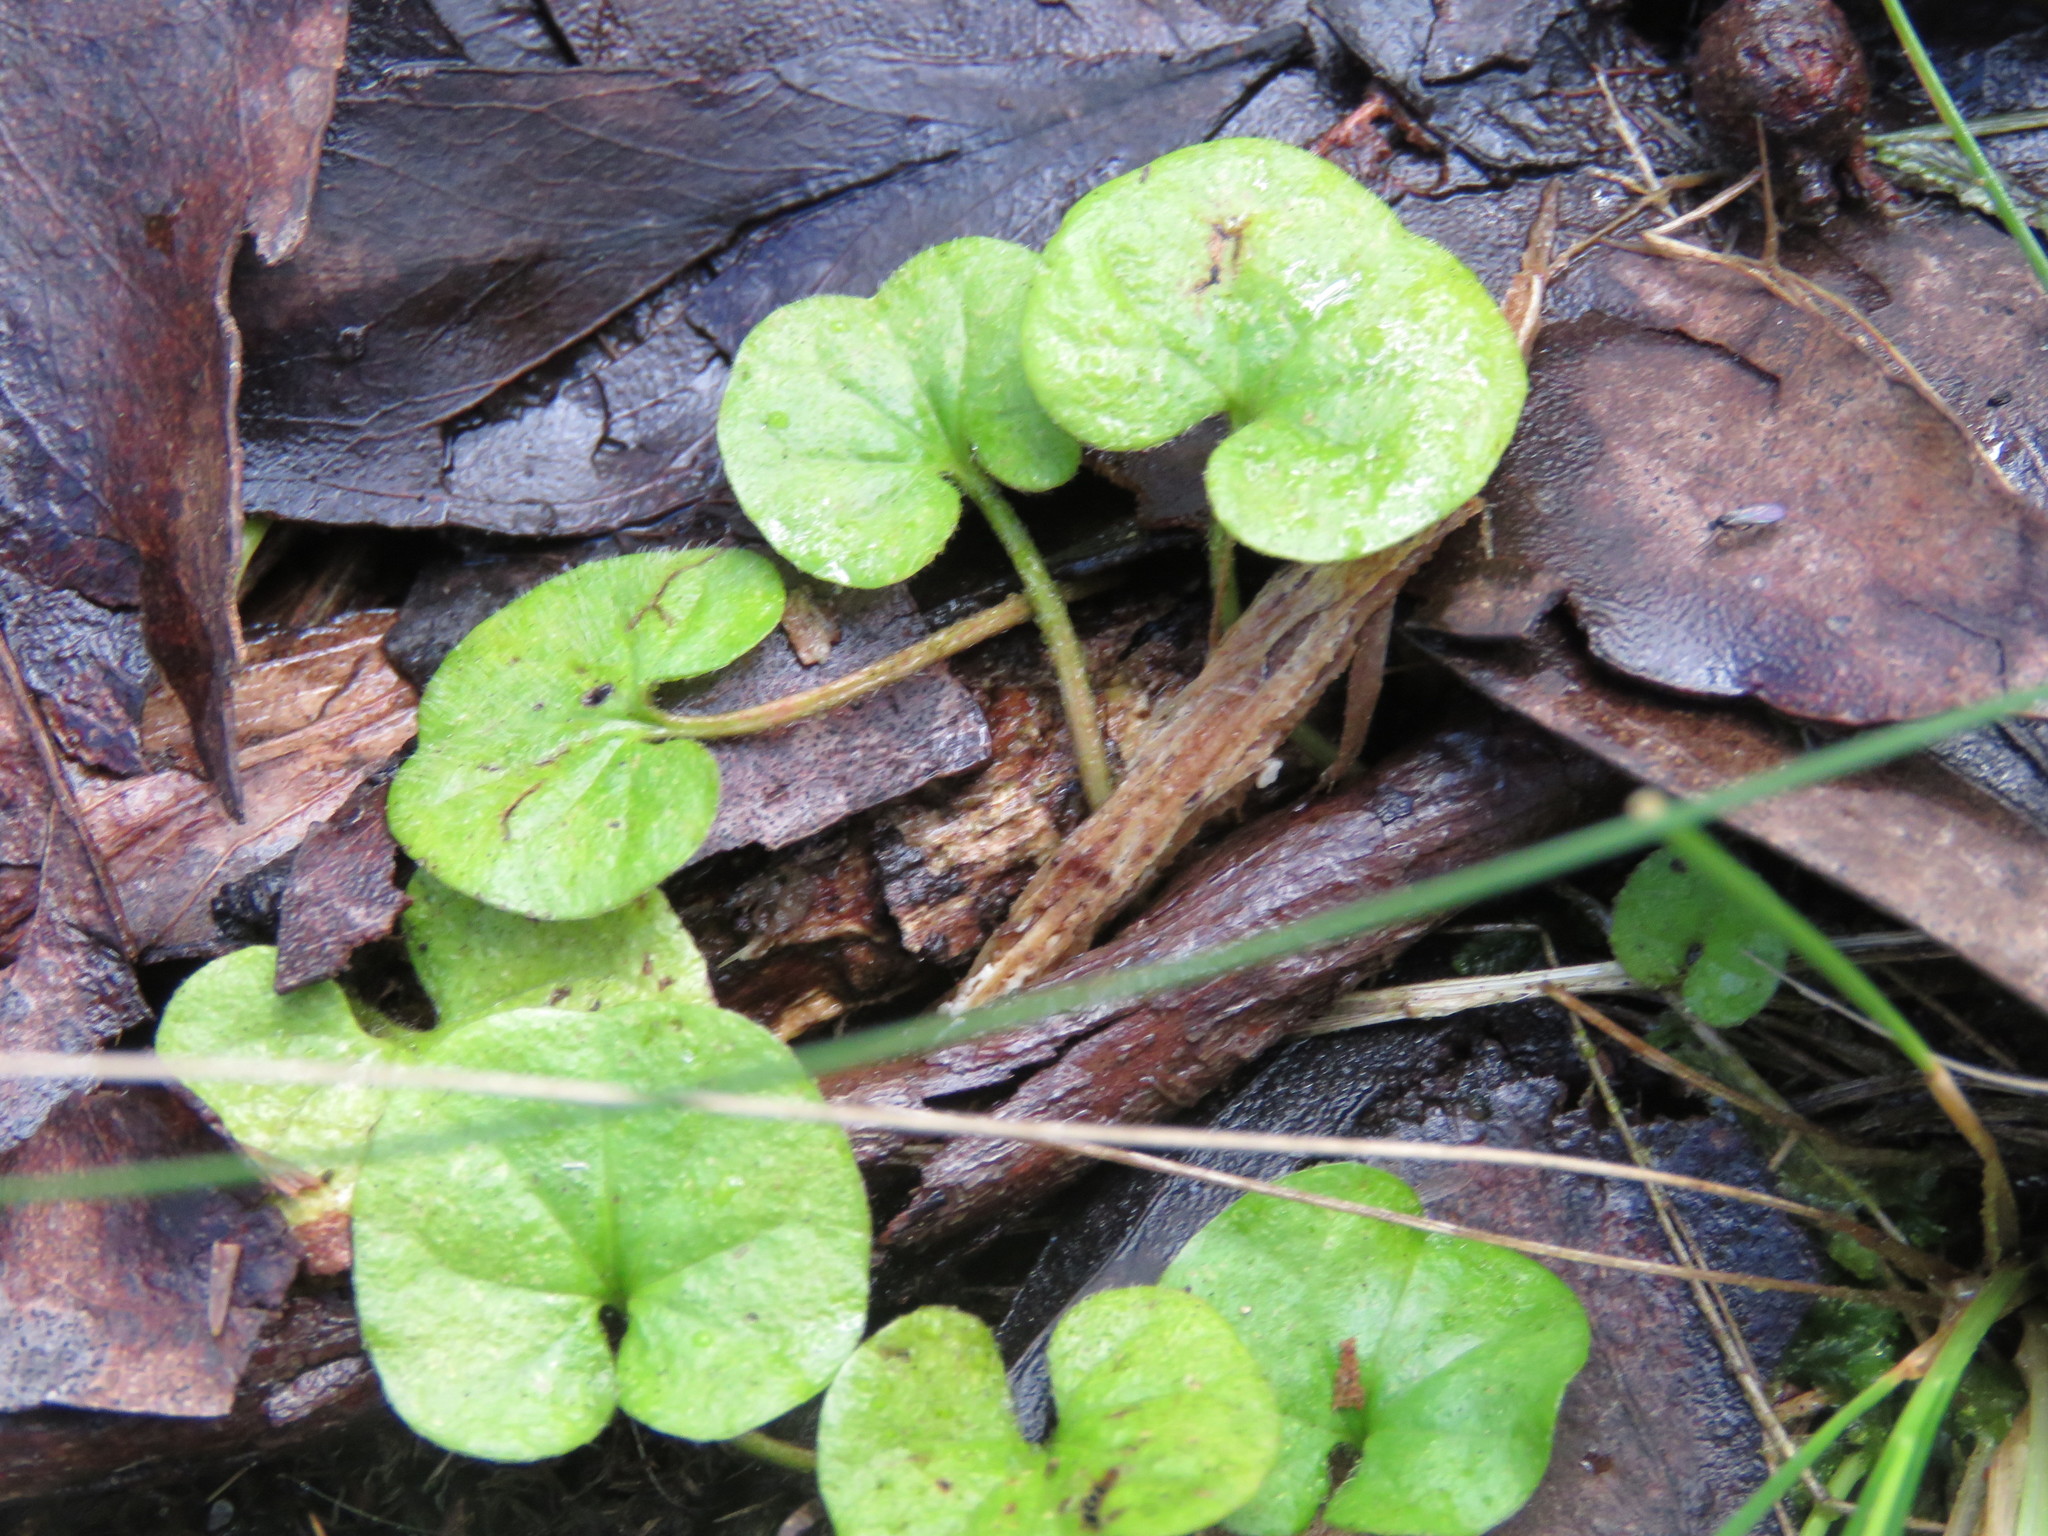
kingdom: Plantae
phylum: Tracheophyta
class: Magnoliopsida
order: Solanales
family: Convolvulaceae
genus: Dichondra
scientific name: Dichondra repens
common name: Kidneyweed
